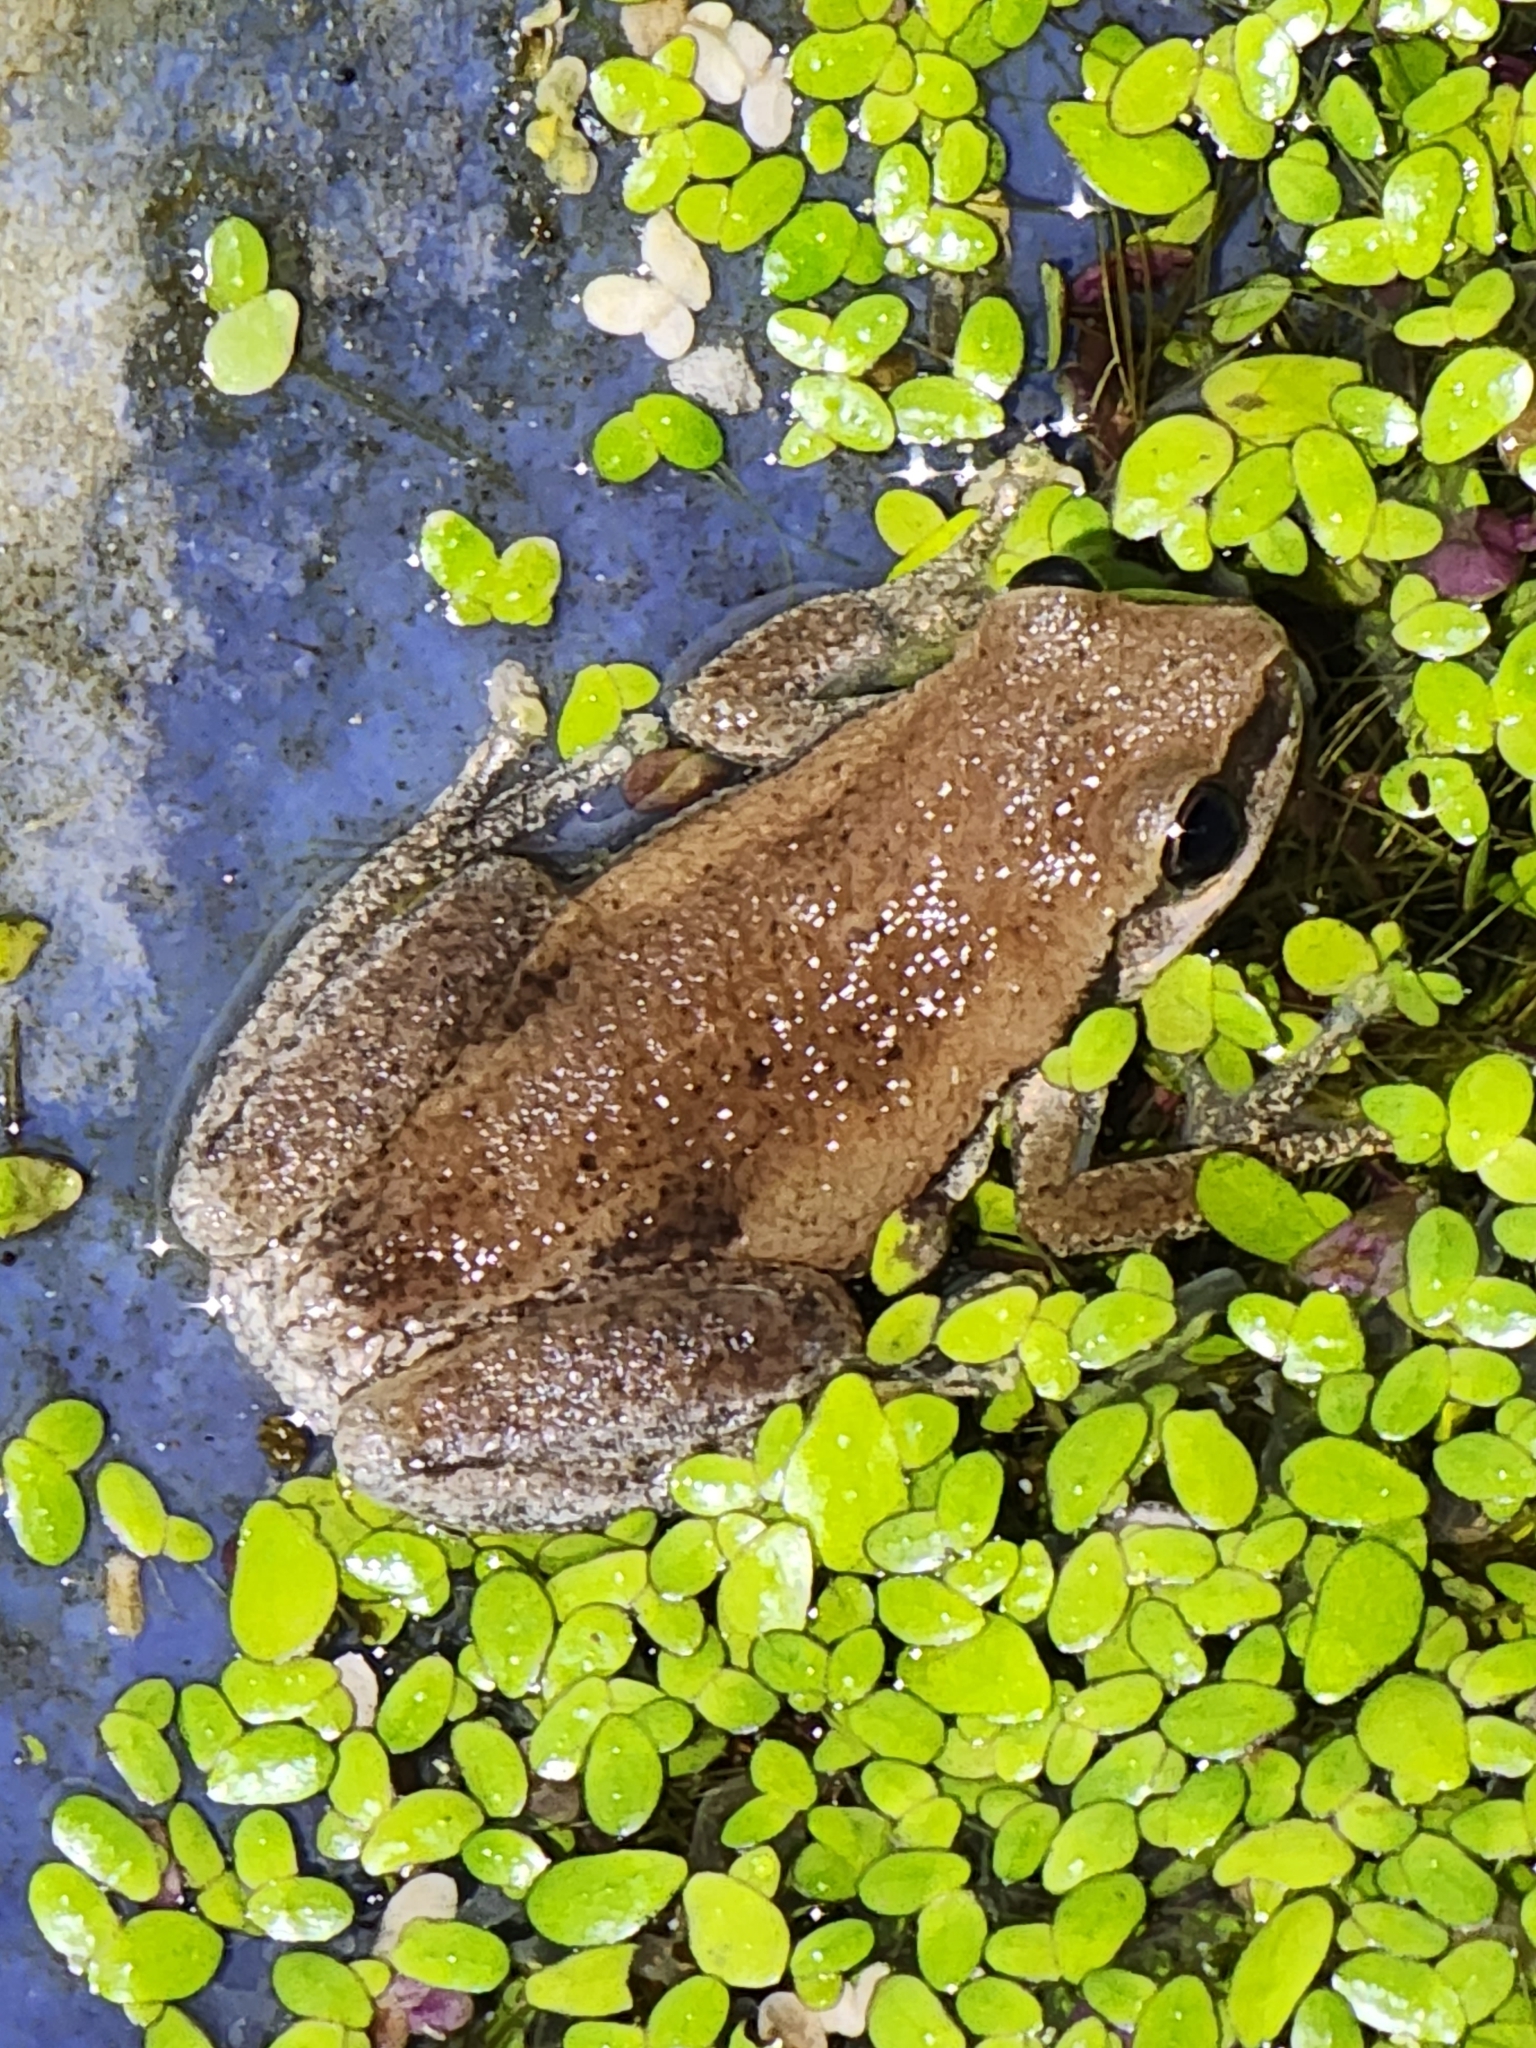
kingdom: Animalia
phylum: Chordata
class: Amphibia
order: Anura
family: Pelodryadidae
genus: Litoria
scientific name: Litoria rubella
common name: Desert tree frog
